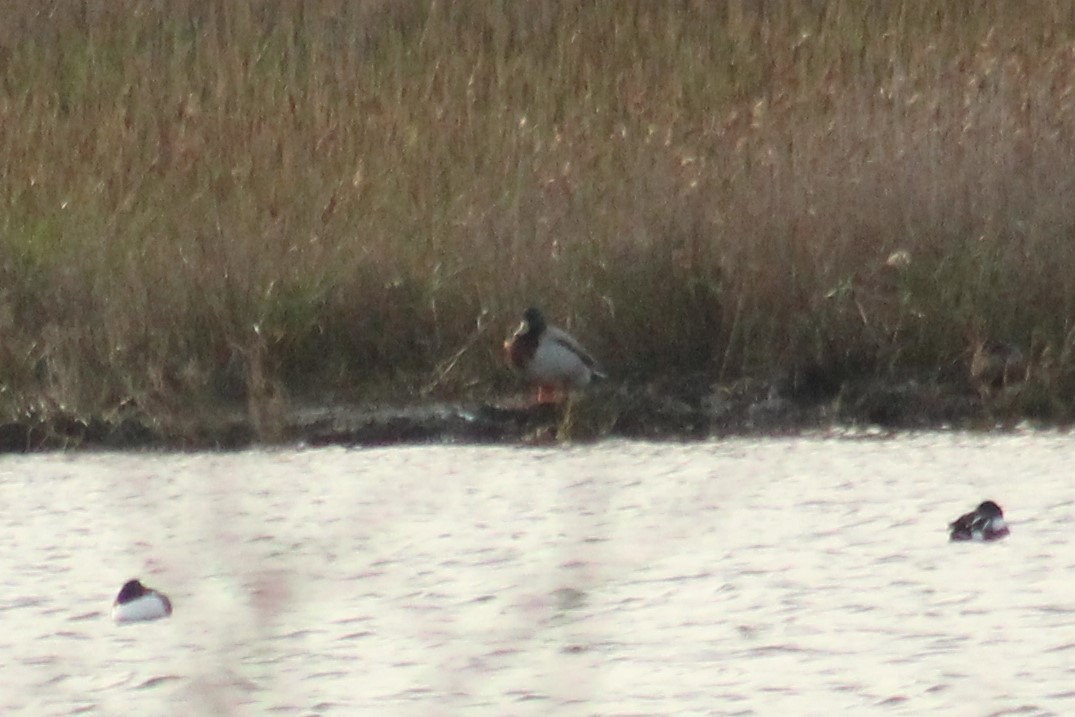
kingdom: Animalia
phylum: Chordata
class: Aves
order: Anseriformes
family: Anatidae
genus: Anas
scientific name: Anas platyrhynchos
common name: Mallard
